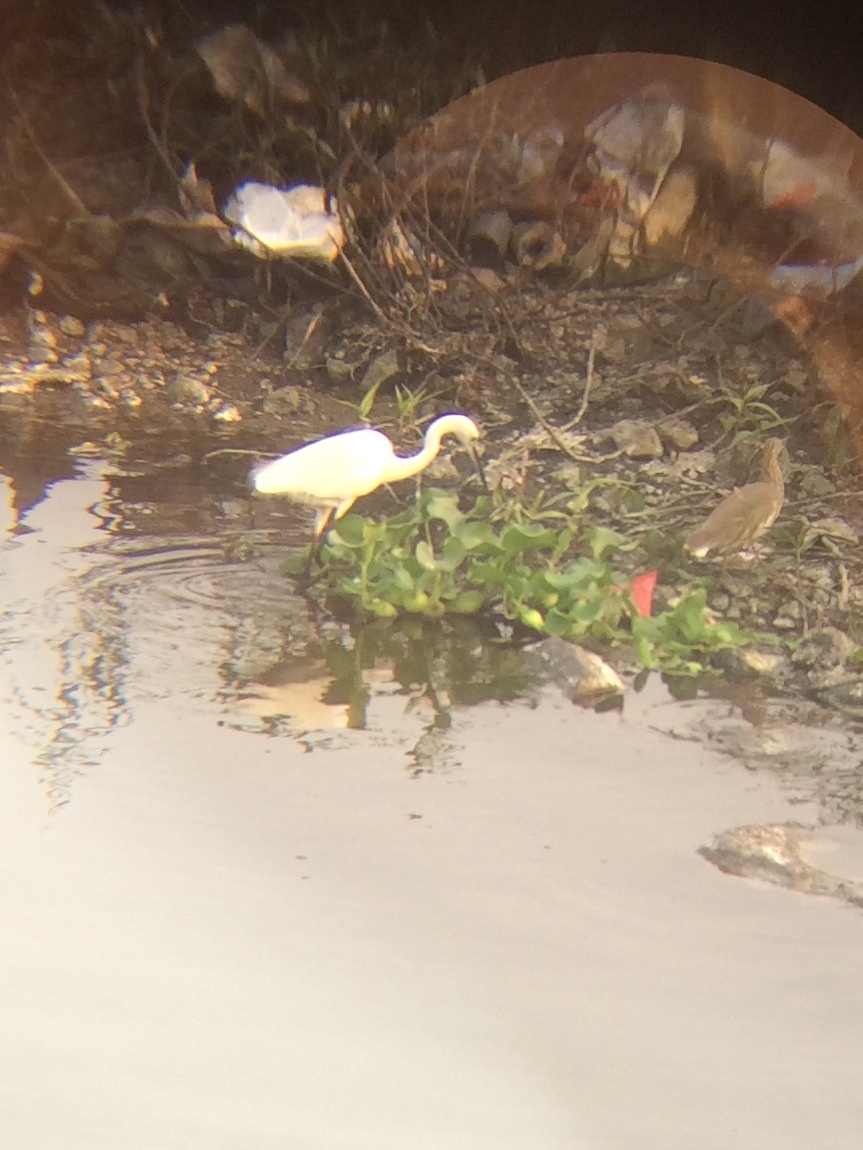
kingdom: Animalia
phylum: Chordata
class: Aves
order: Pelecaniformes
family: Ardeidae
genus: Egretta
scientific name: Egretta garzetta
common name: Little egret
